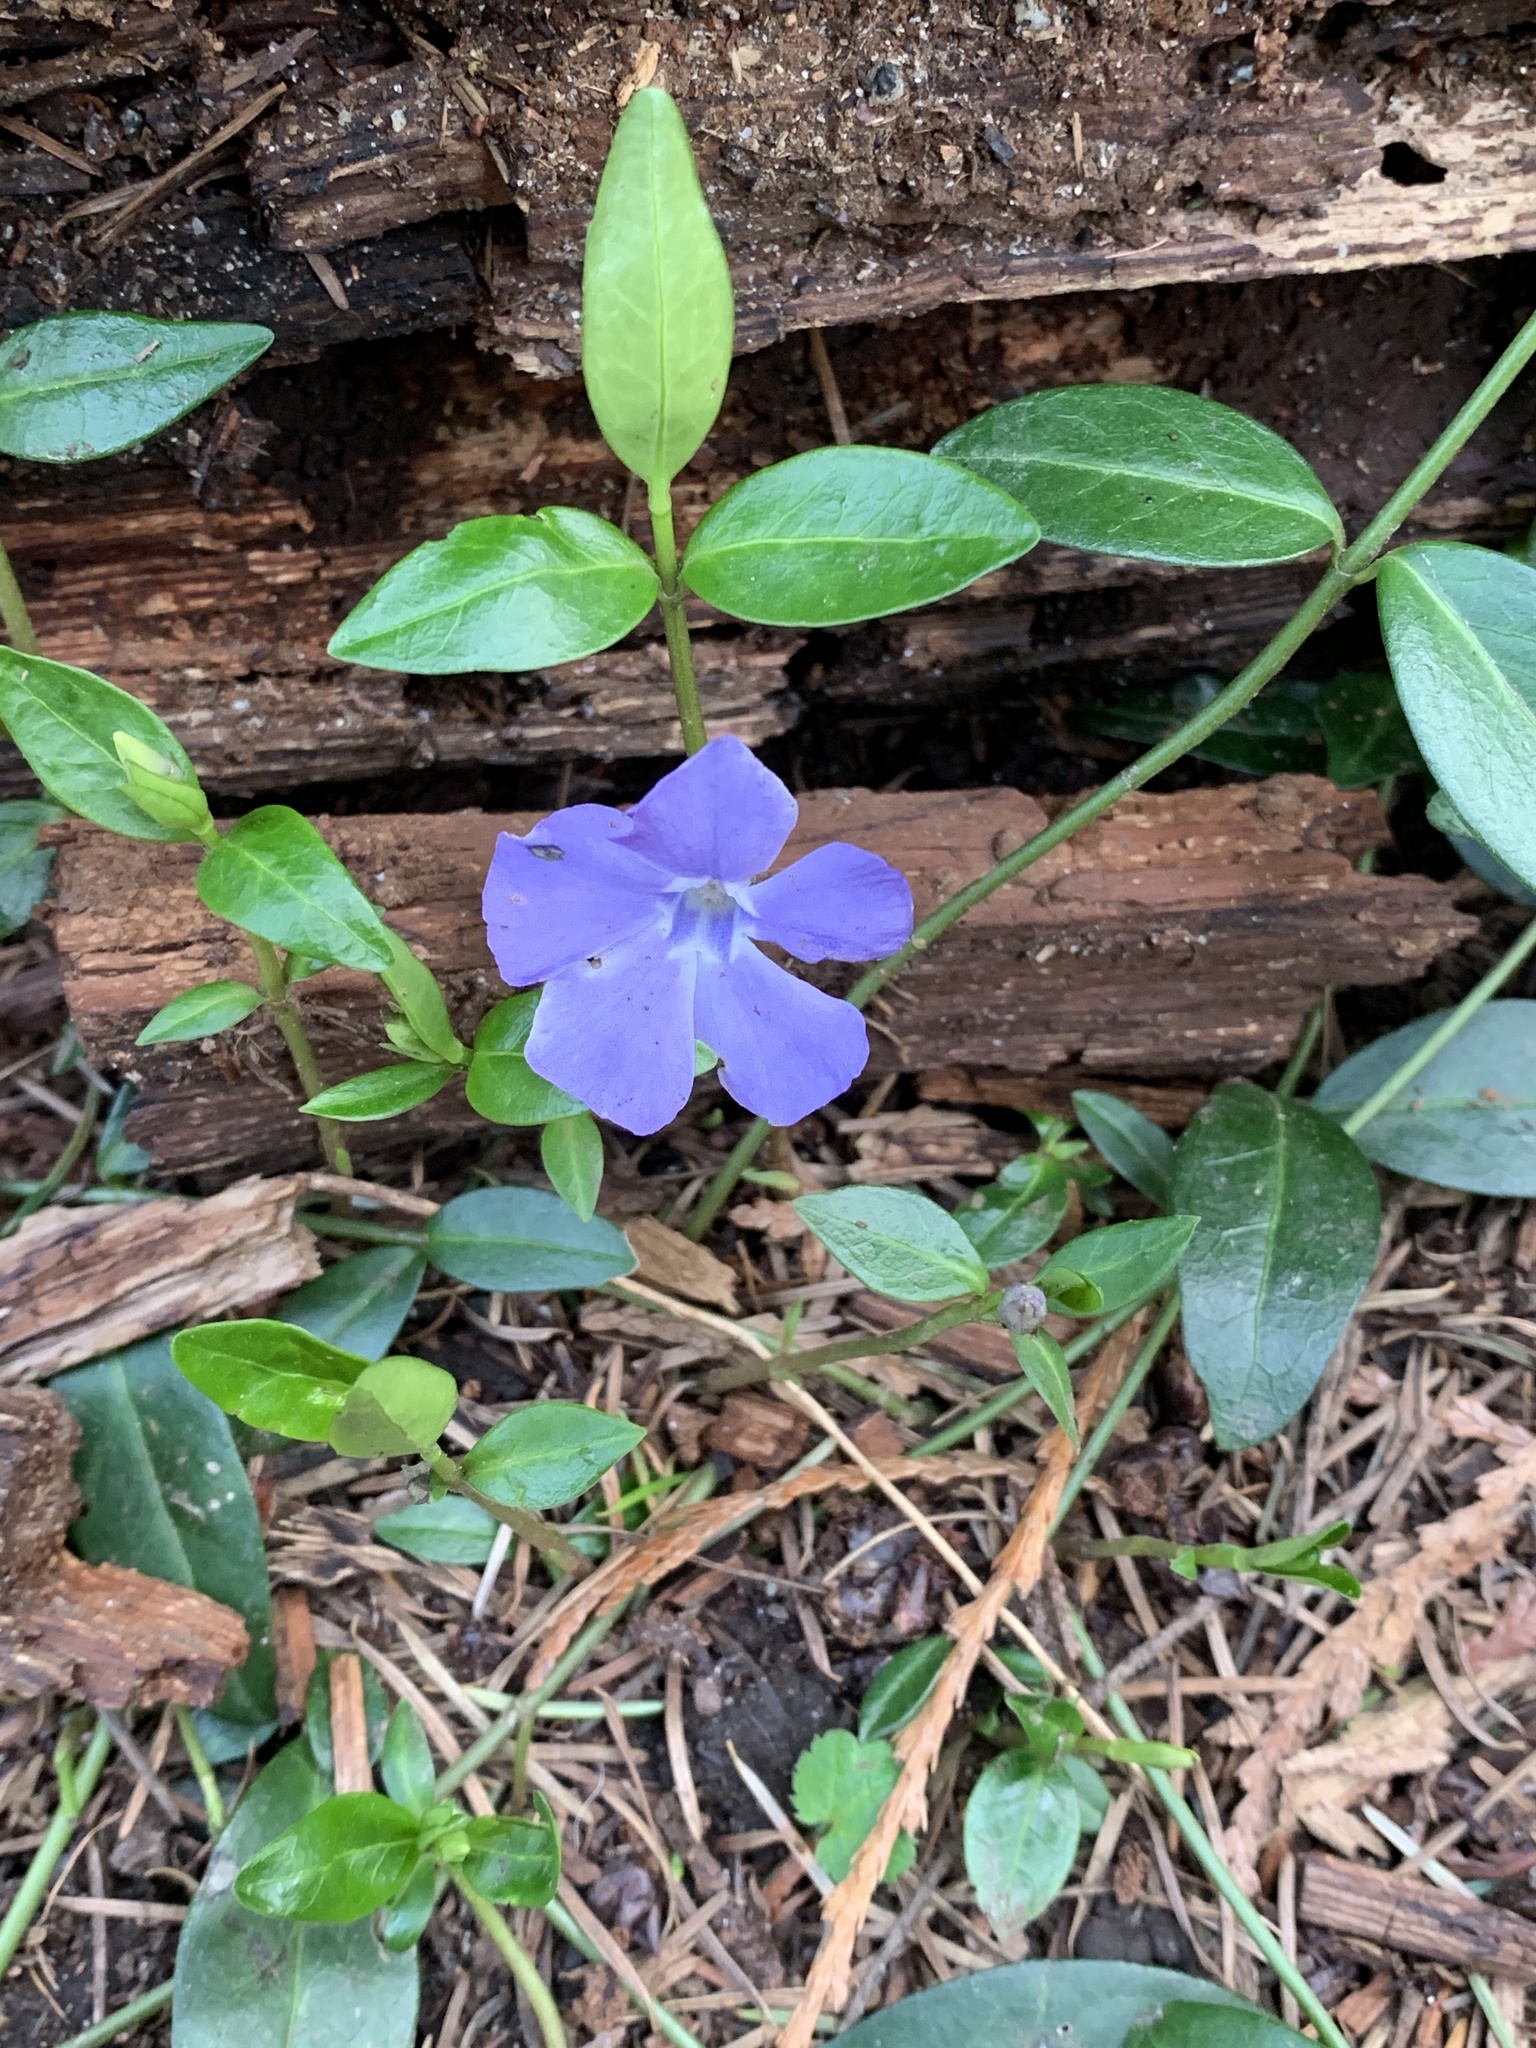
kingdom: Plantae
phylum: Tracheophyta
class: Magnoliopsida
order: Gentianales
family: Apocynaceae
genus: Vinca
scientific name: Vinca minor
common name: Lesser periwinkle
